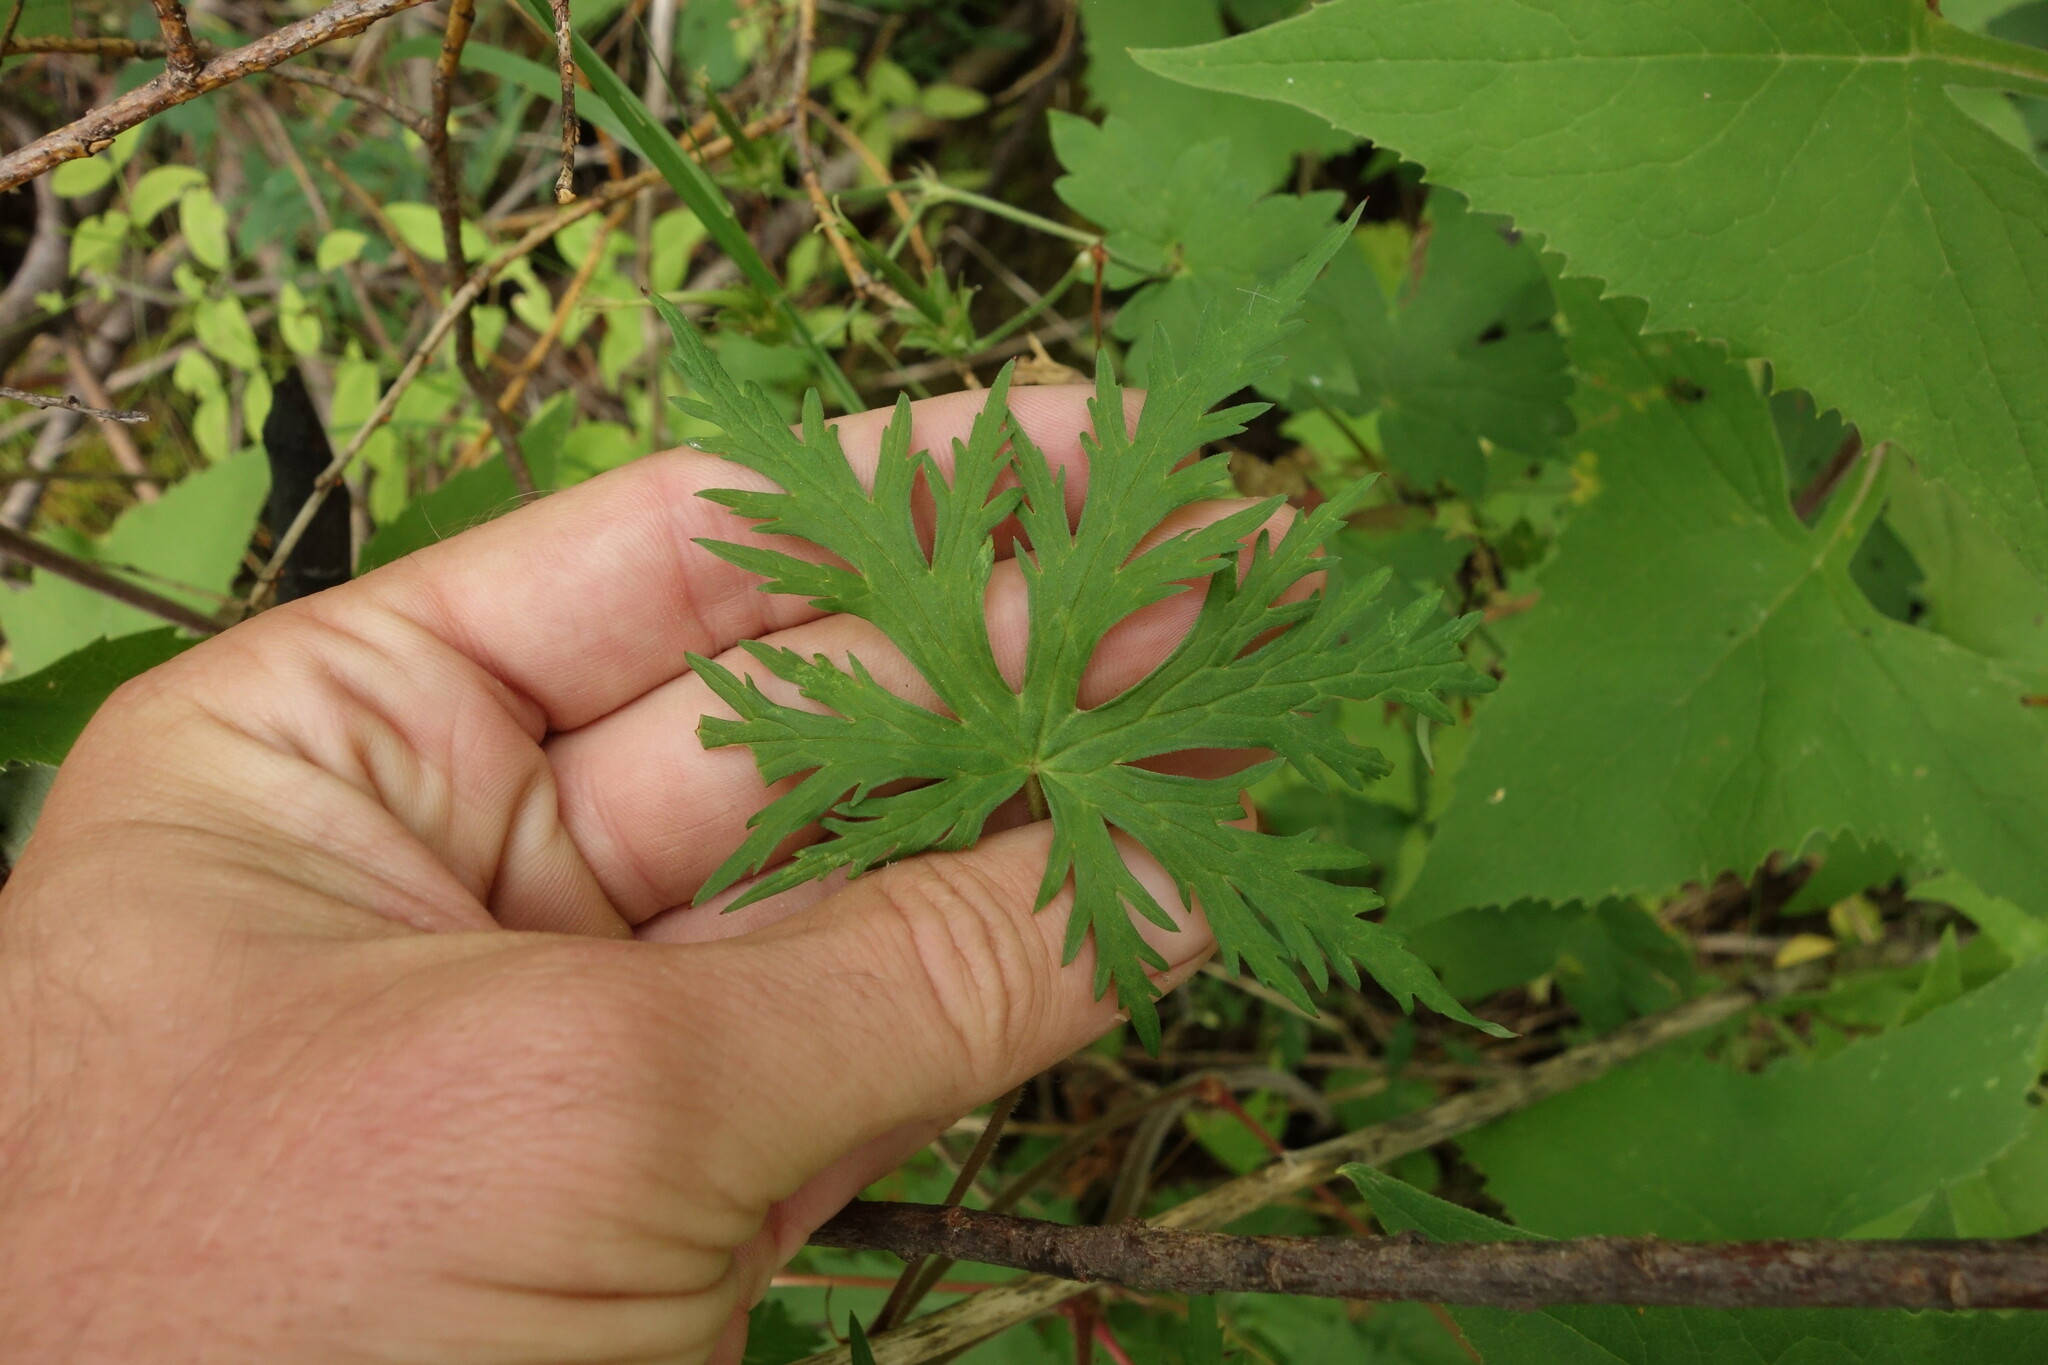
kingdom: Plantae
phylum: Tracheophyta
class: Magnoliopsida
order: Geraniales
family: Geraniaceae
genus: Geranium
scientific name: Geranium pratense
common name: Meadow crane's-bill
